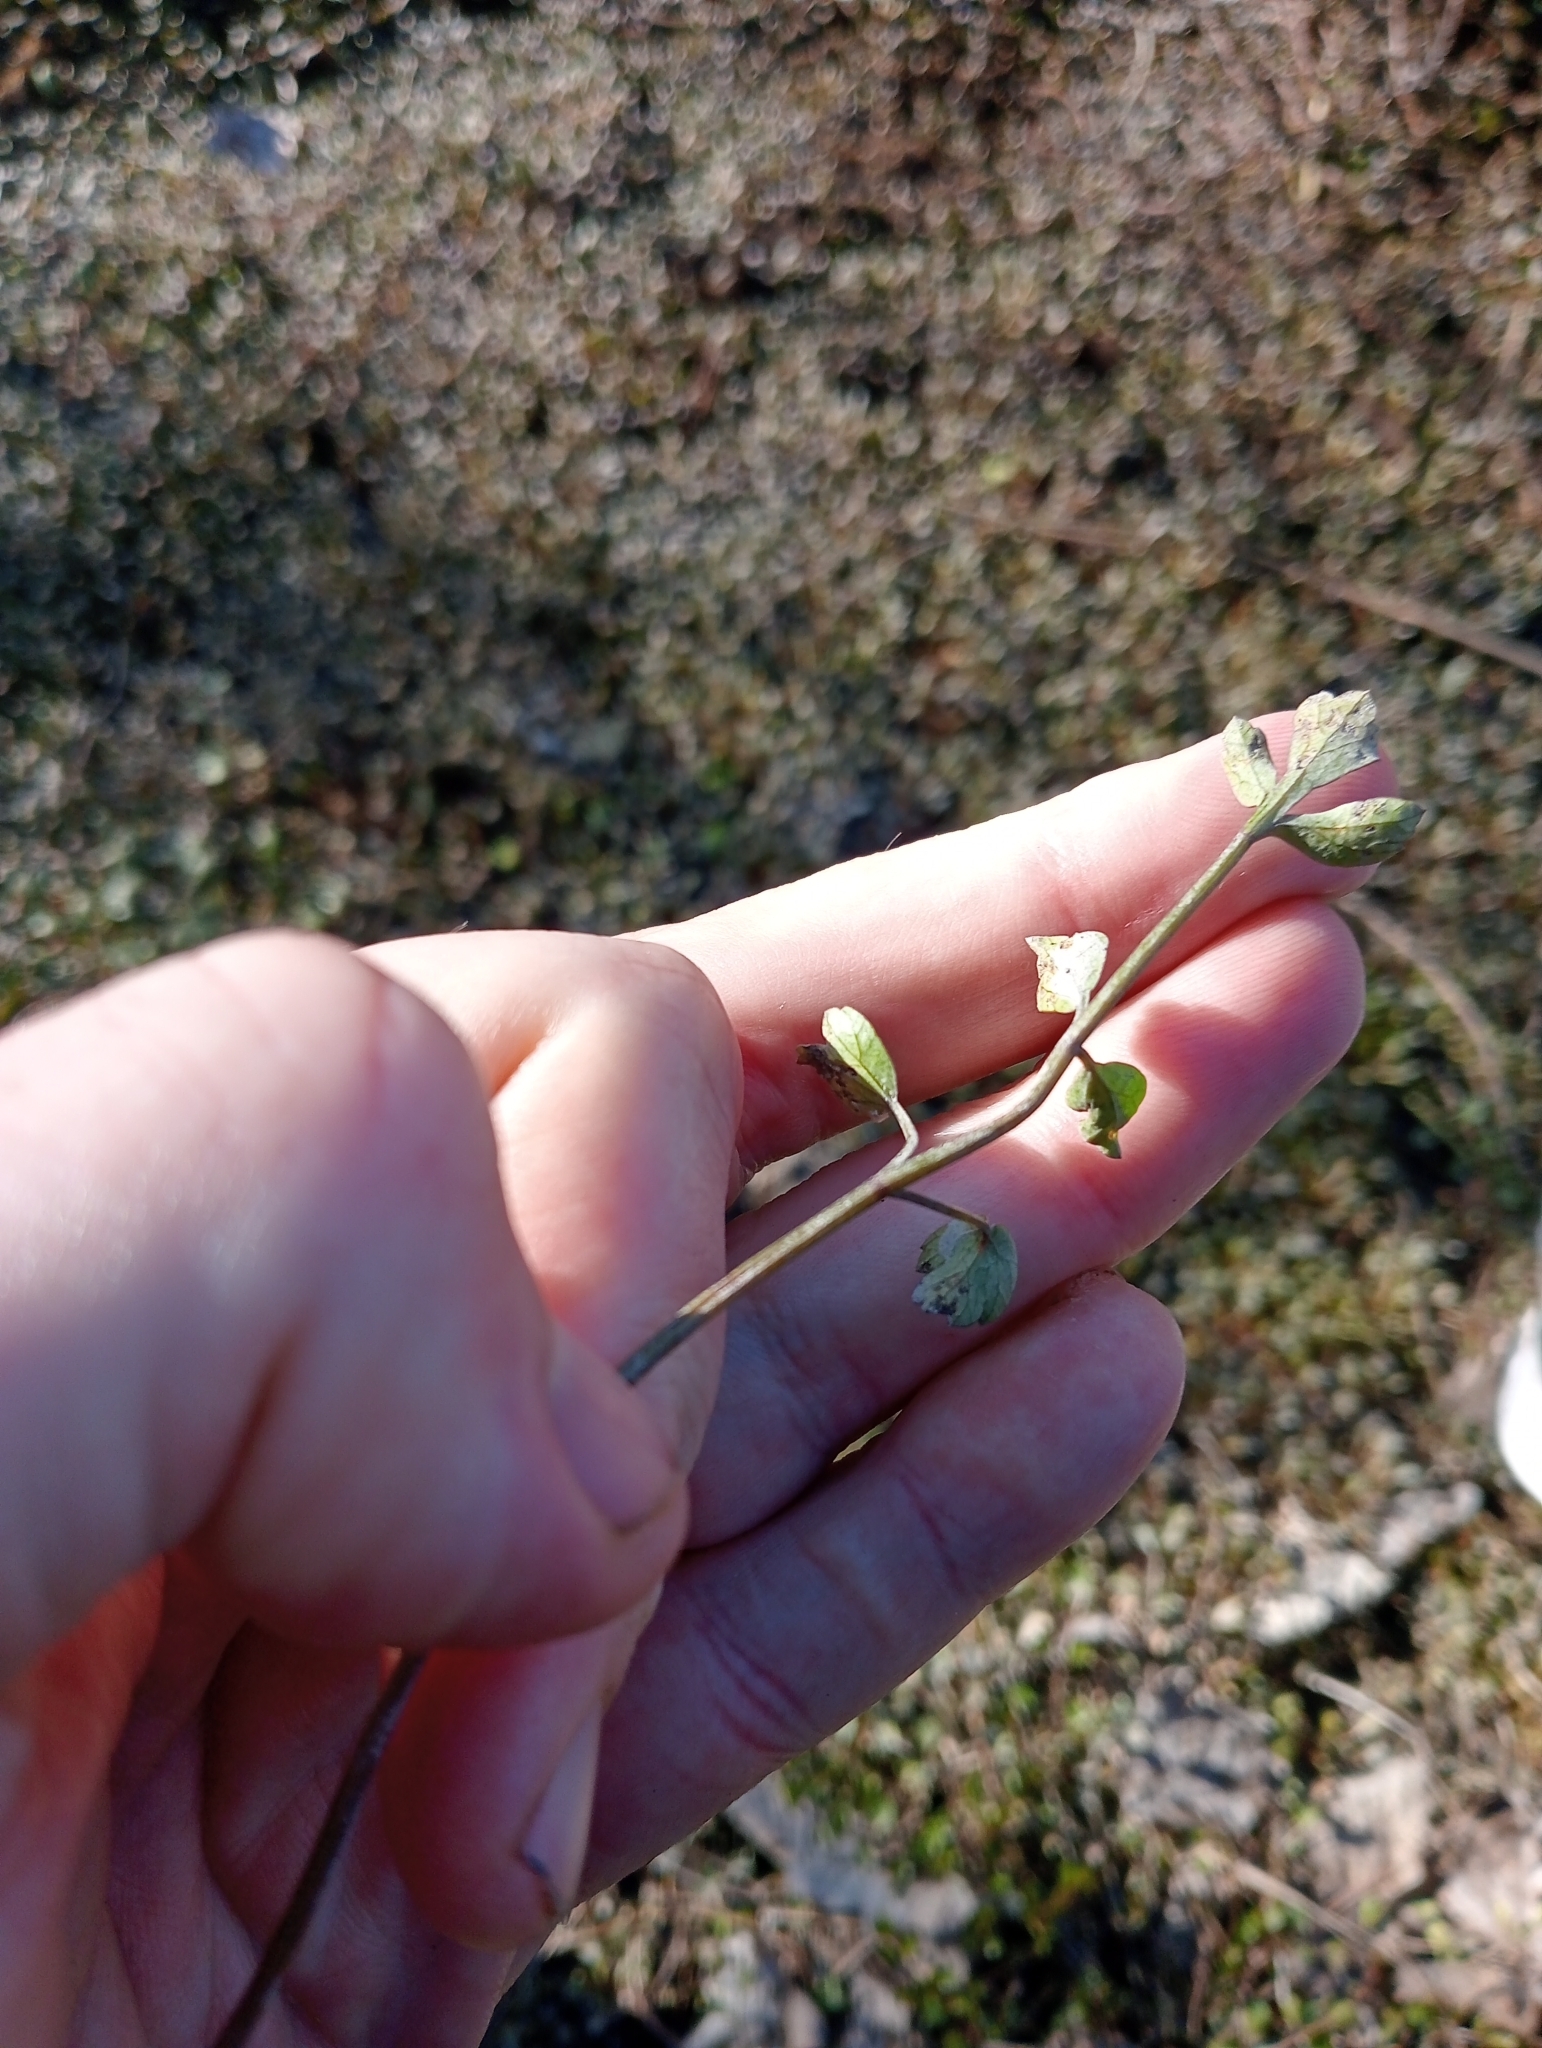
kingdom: Plantae
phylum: Tracheophyta
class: Magnoliopsida
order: Apiales
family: Apiaceae
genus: Apium
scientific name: Apium prostratum
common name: Prostrate marshwort
